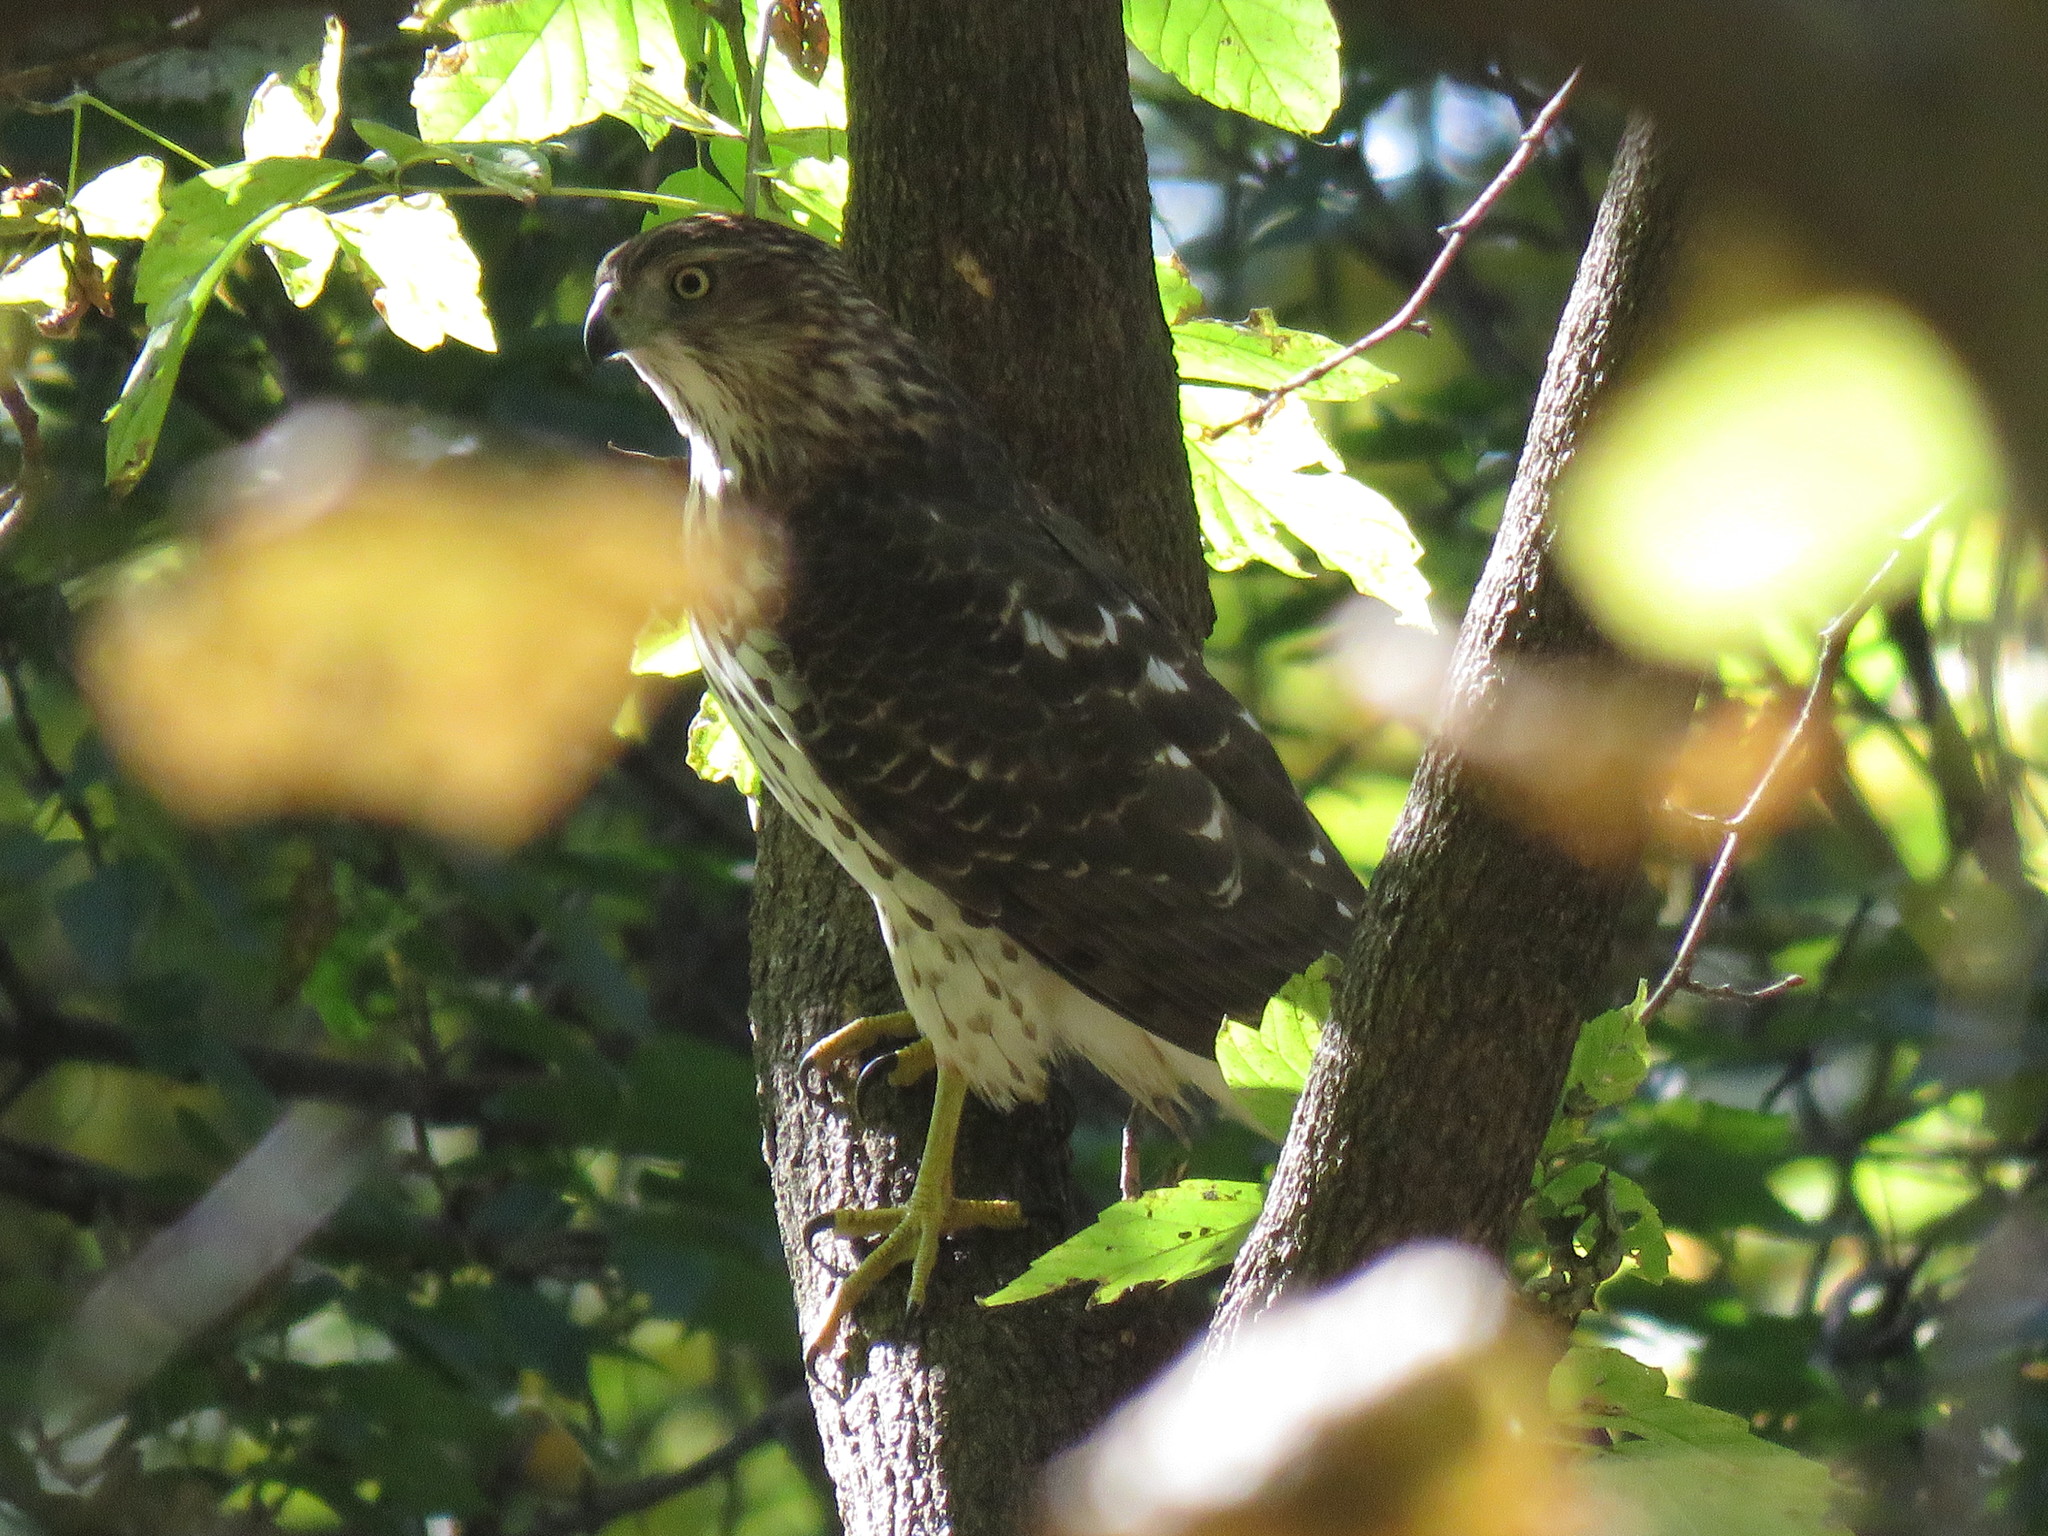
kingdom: Animalia
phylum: Chordata
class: Aves
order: Accipitriformes
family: Accipitridae
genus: Accipiter
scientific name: Accipiter cooperii
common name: Cooper's hawk
